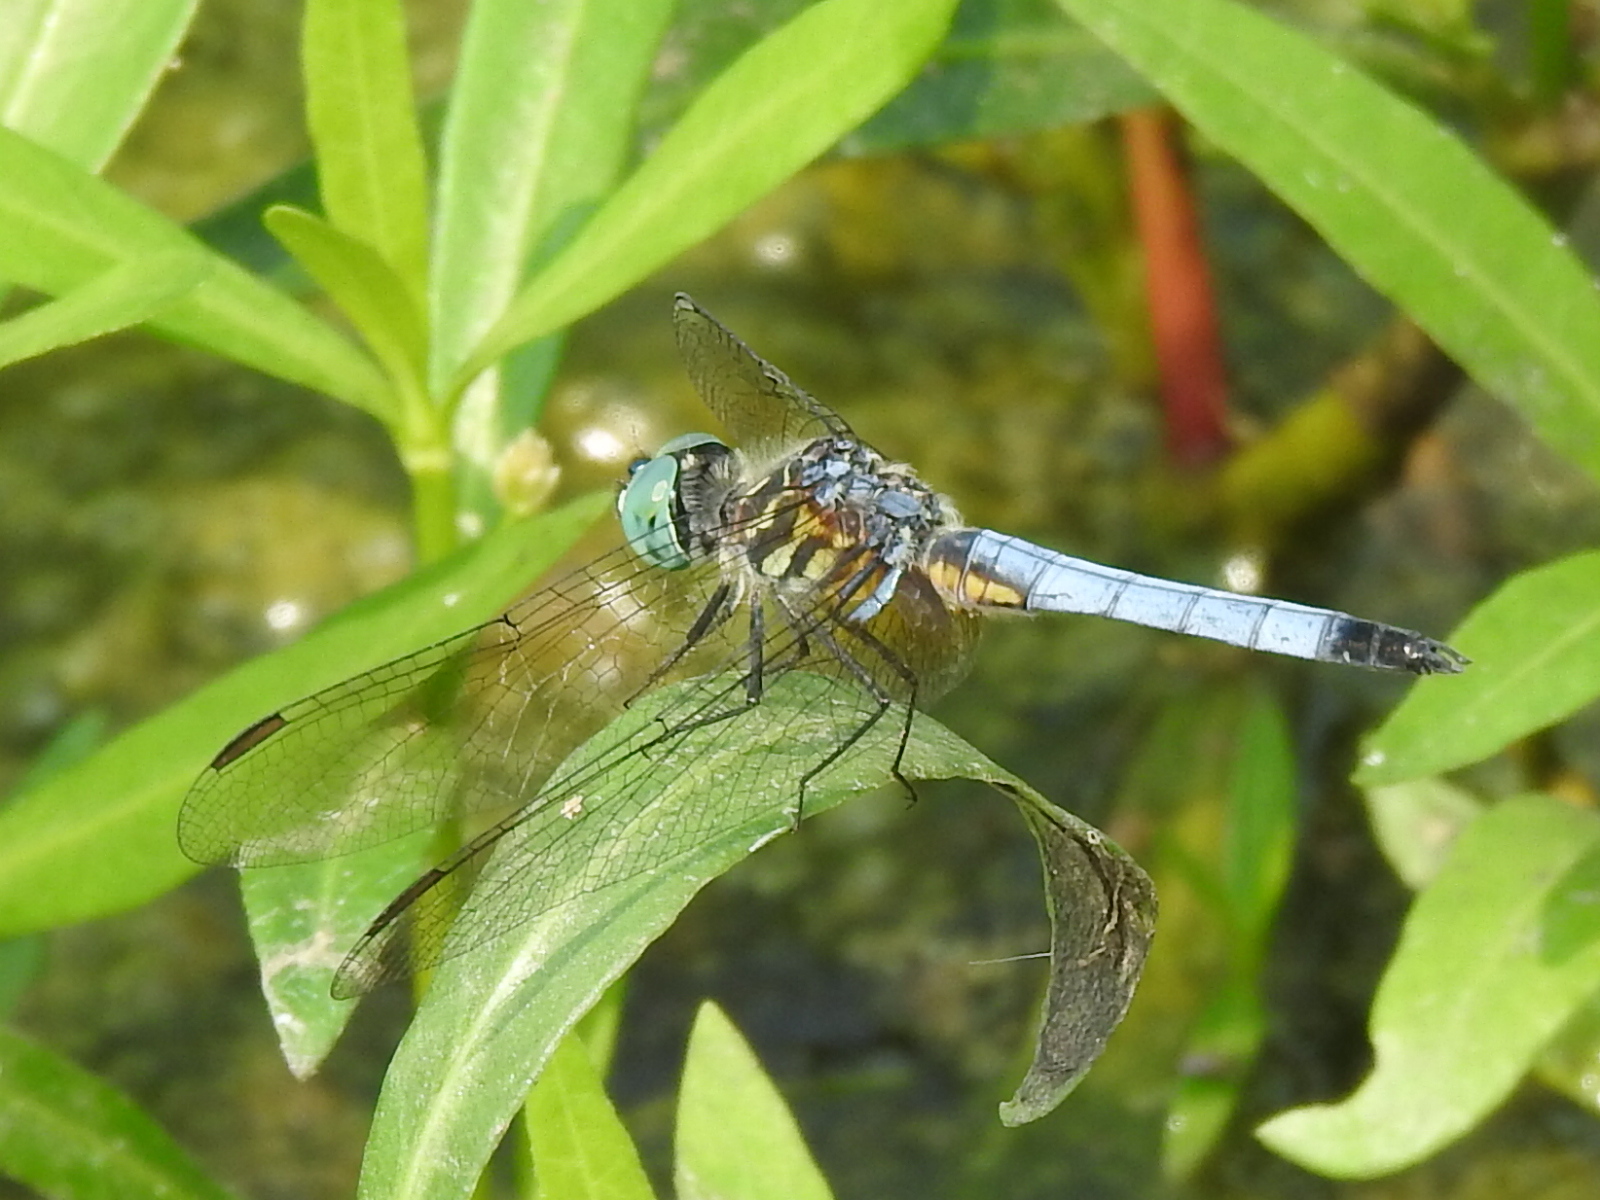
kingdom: Animalia
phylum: Arthropoda
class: Insecta
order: Odonata
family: Libellulidae
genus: Pachydiplax
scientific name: Pachydiplax longipennis
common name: Blue dasher
